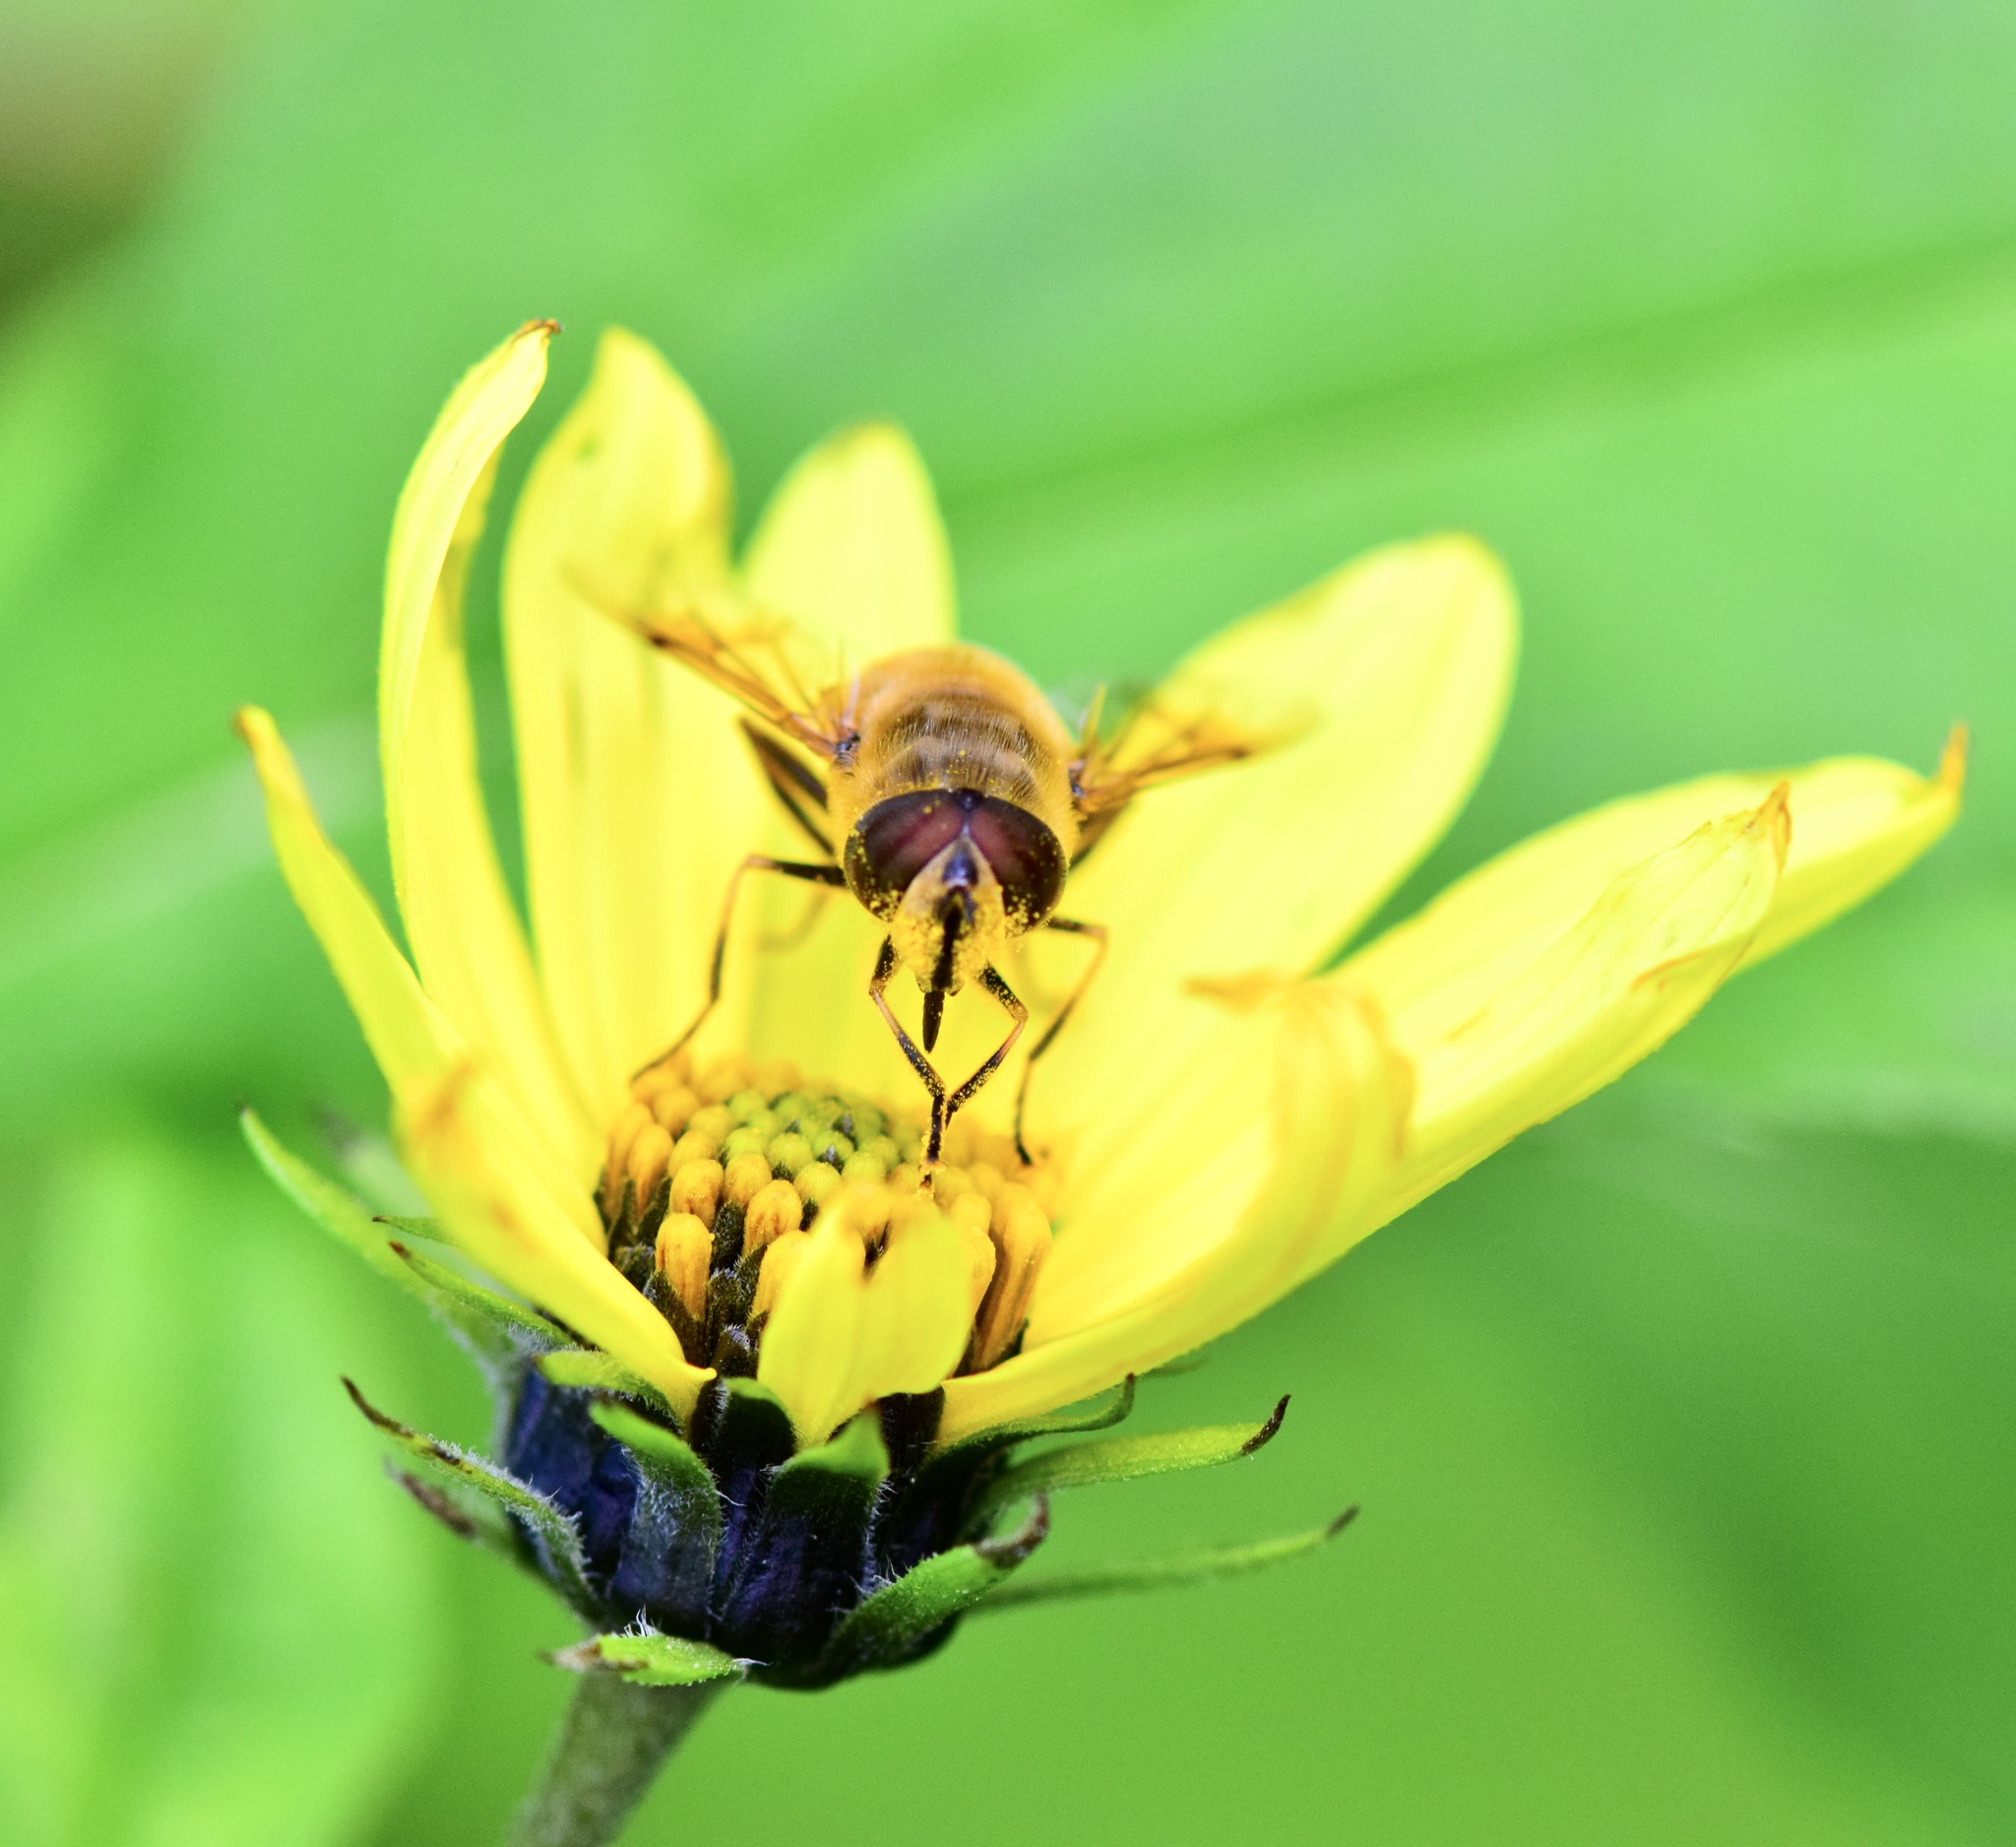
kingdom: Animalia
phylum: Arthropoda
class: Insecta
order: Diptera
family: Syrphidae
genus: Eristalis
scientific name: Eristalis tenax
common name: Drone fly
